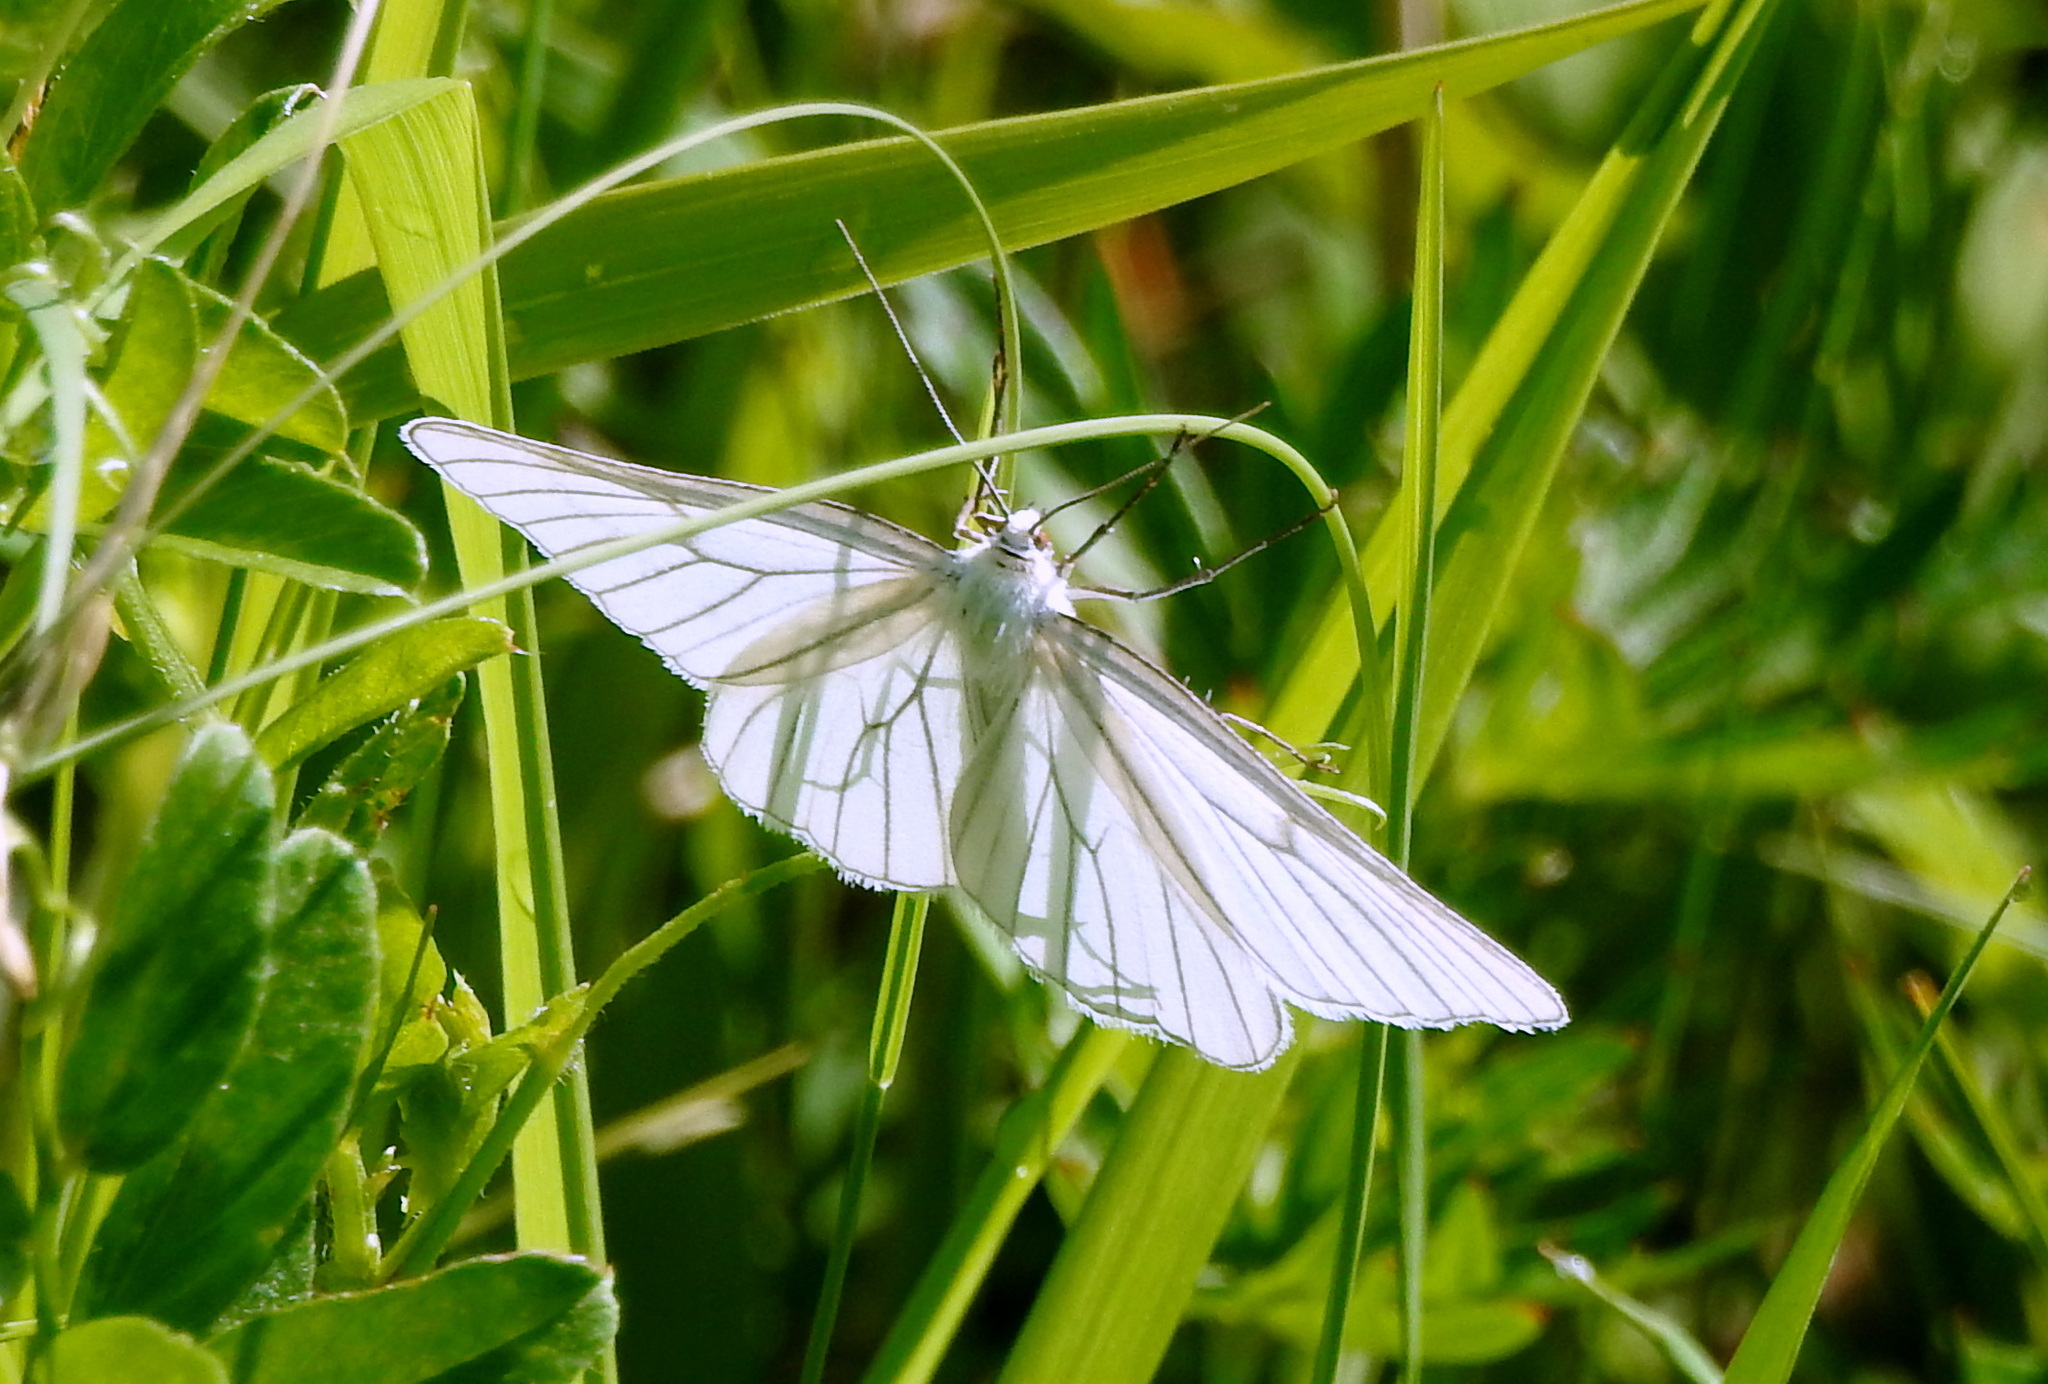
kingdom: Animalia
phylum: Arthropoda
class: Insecta
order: Lepidoptera
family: Geometridae
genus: Siona
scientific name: Siona lineata
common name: Black-veined moth
